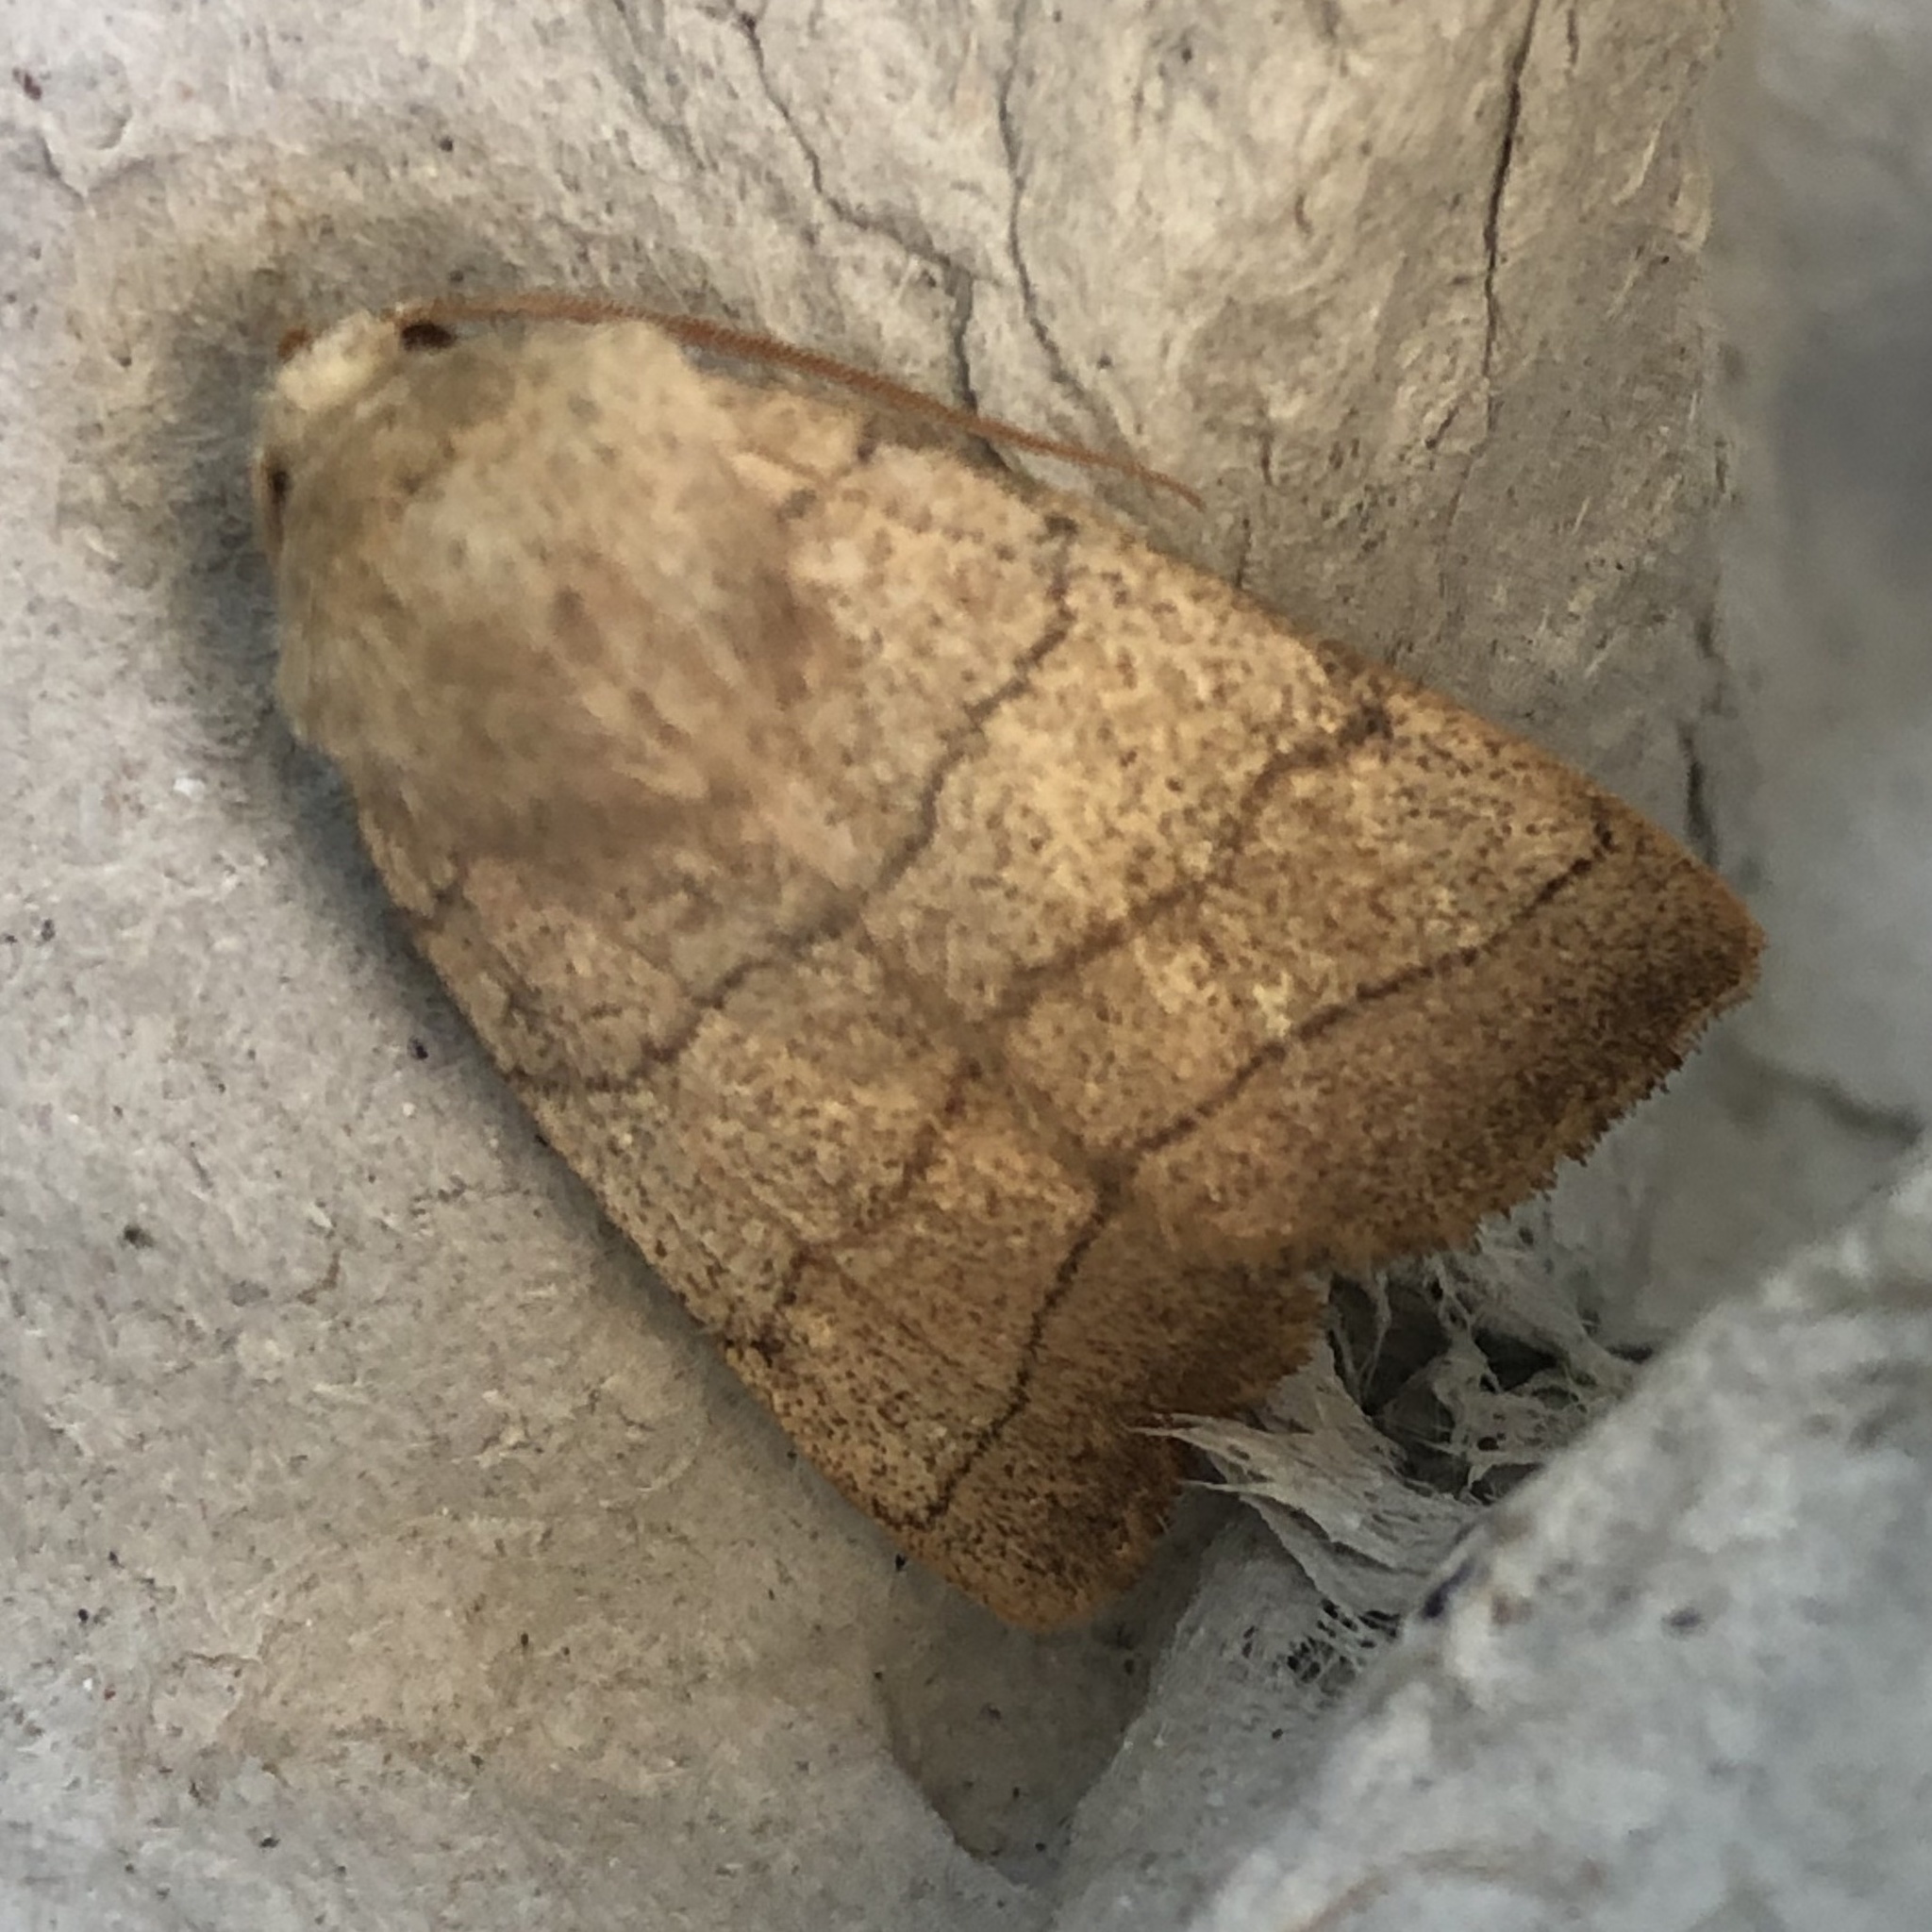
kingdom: Animalia
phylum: Arthropoda
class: Insecta
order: Lepidoptera
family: Noctuidae
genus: Charanyca
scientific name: Charanyca trigrammica
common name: Treble lines
